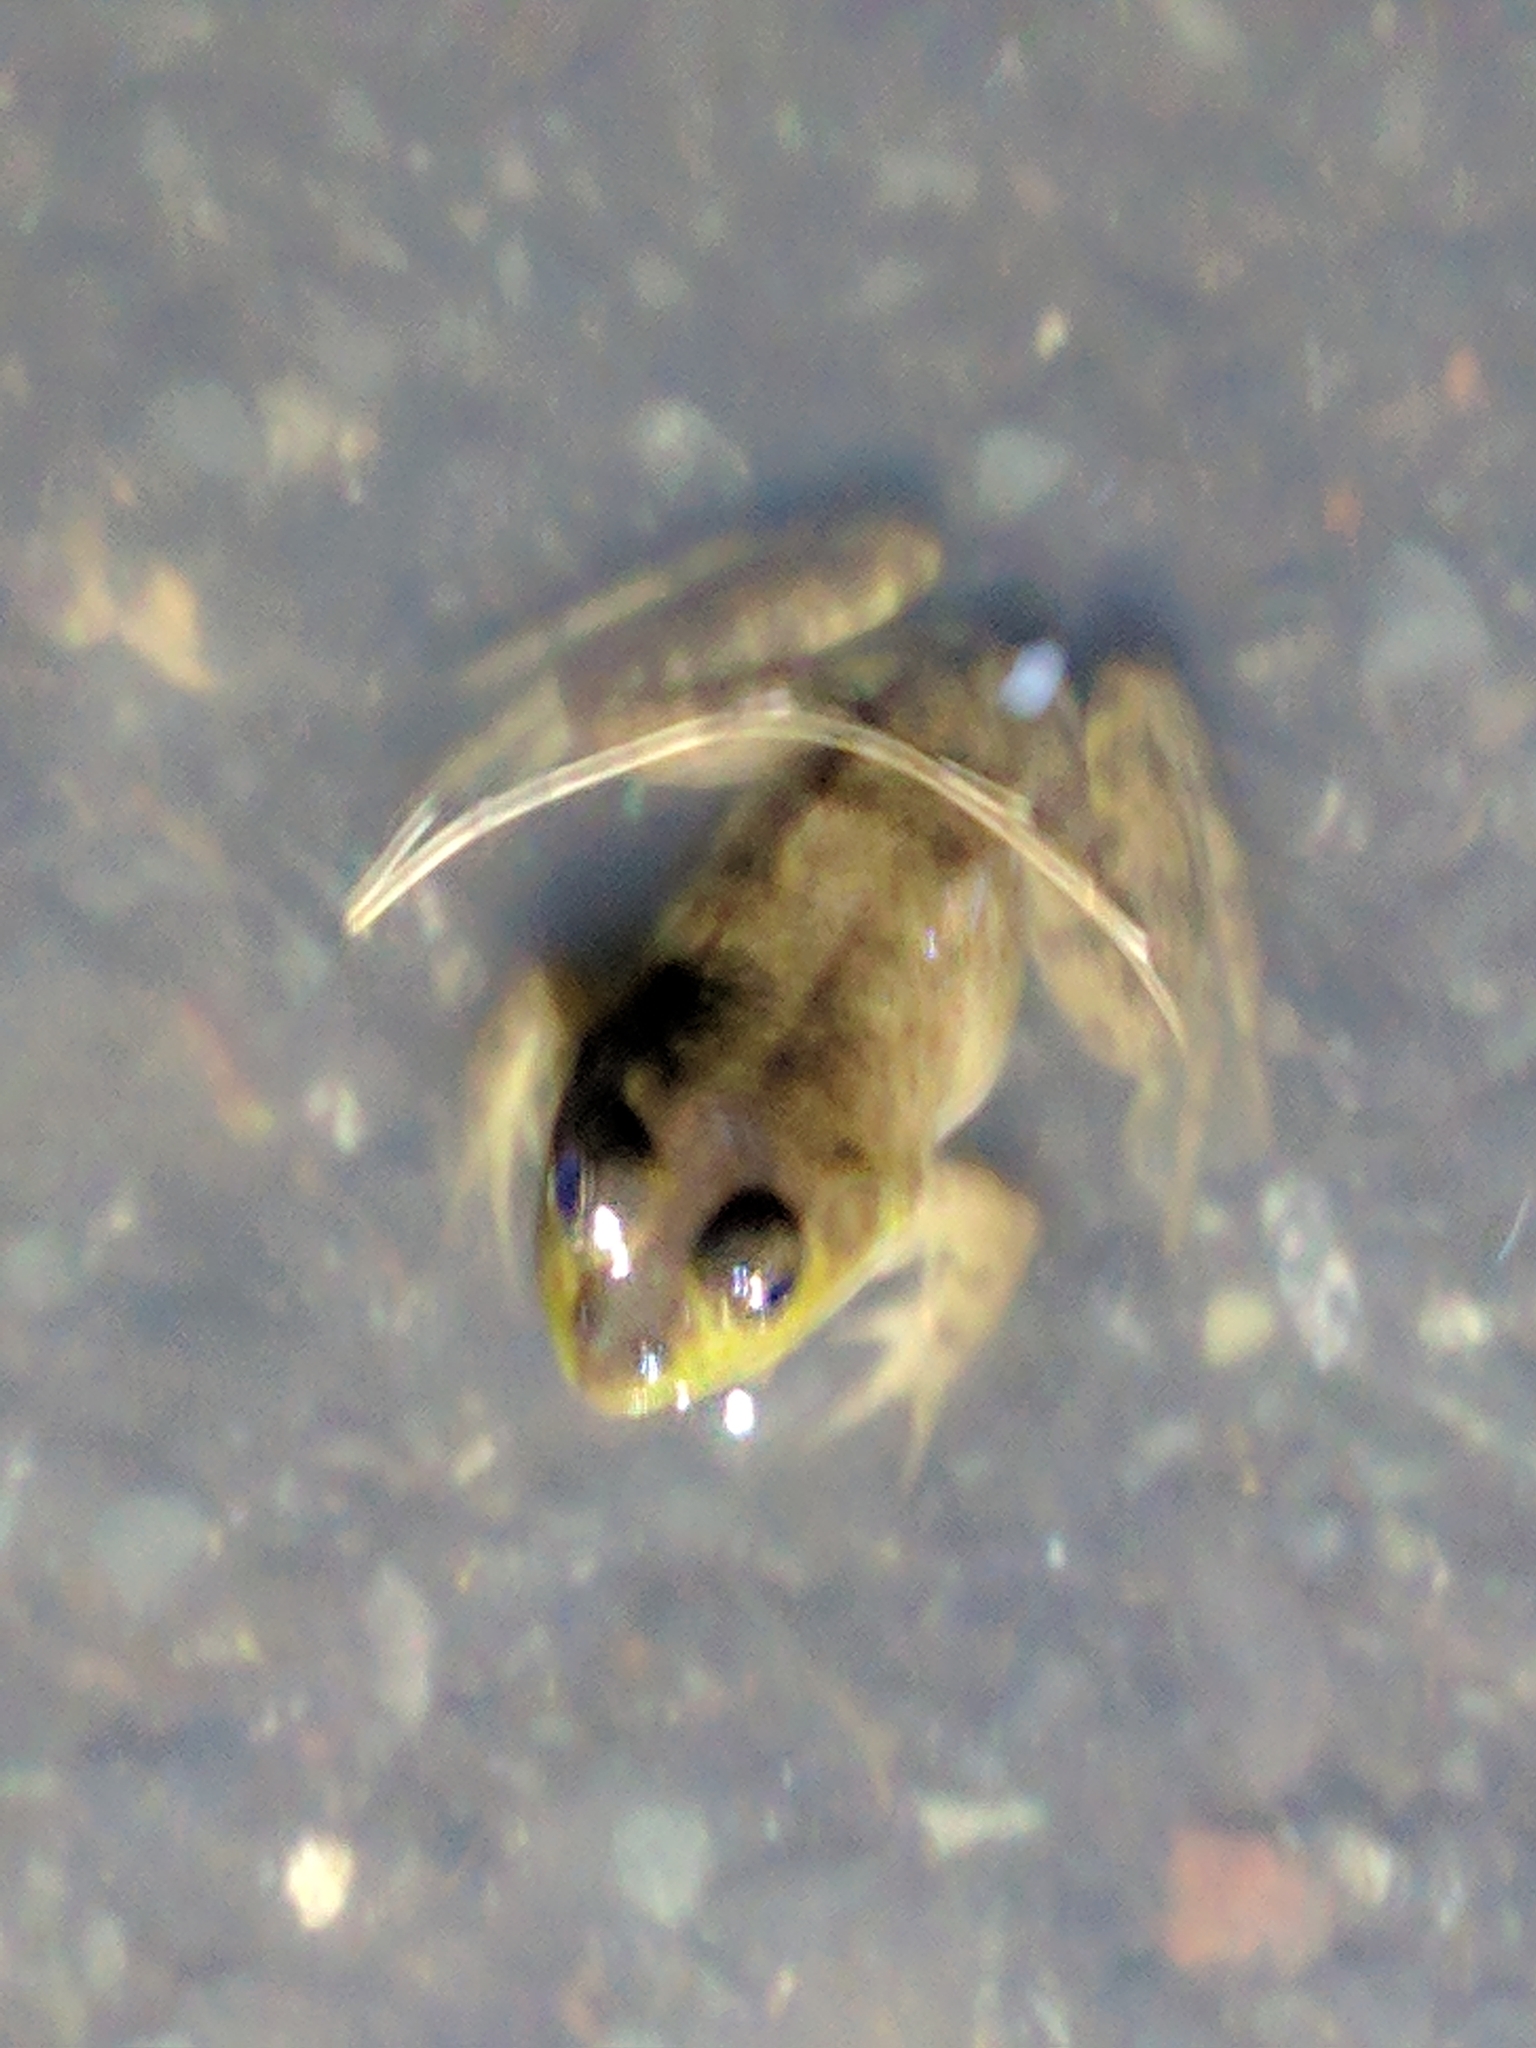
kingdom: Animalia
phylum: Chordata
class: Amphibia
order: Anura
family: Ranidae
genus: Lithobates
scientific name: Lithobates catesbeianus
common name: American bullfrog
